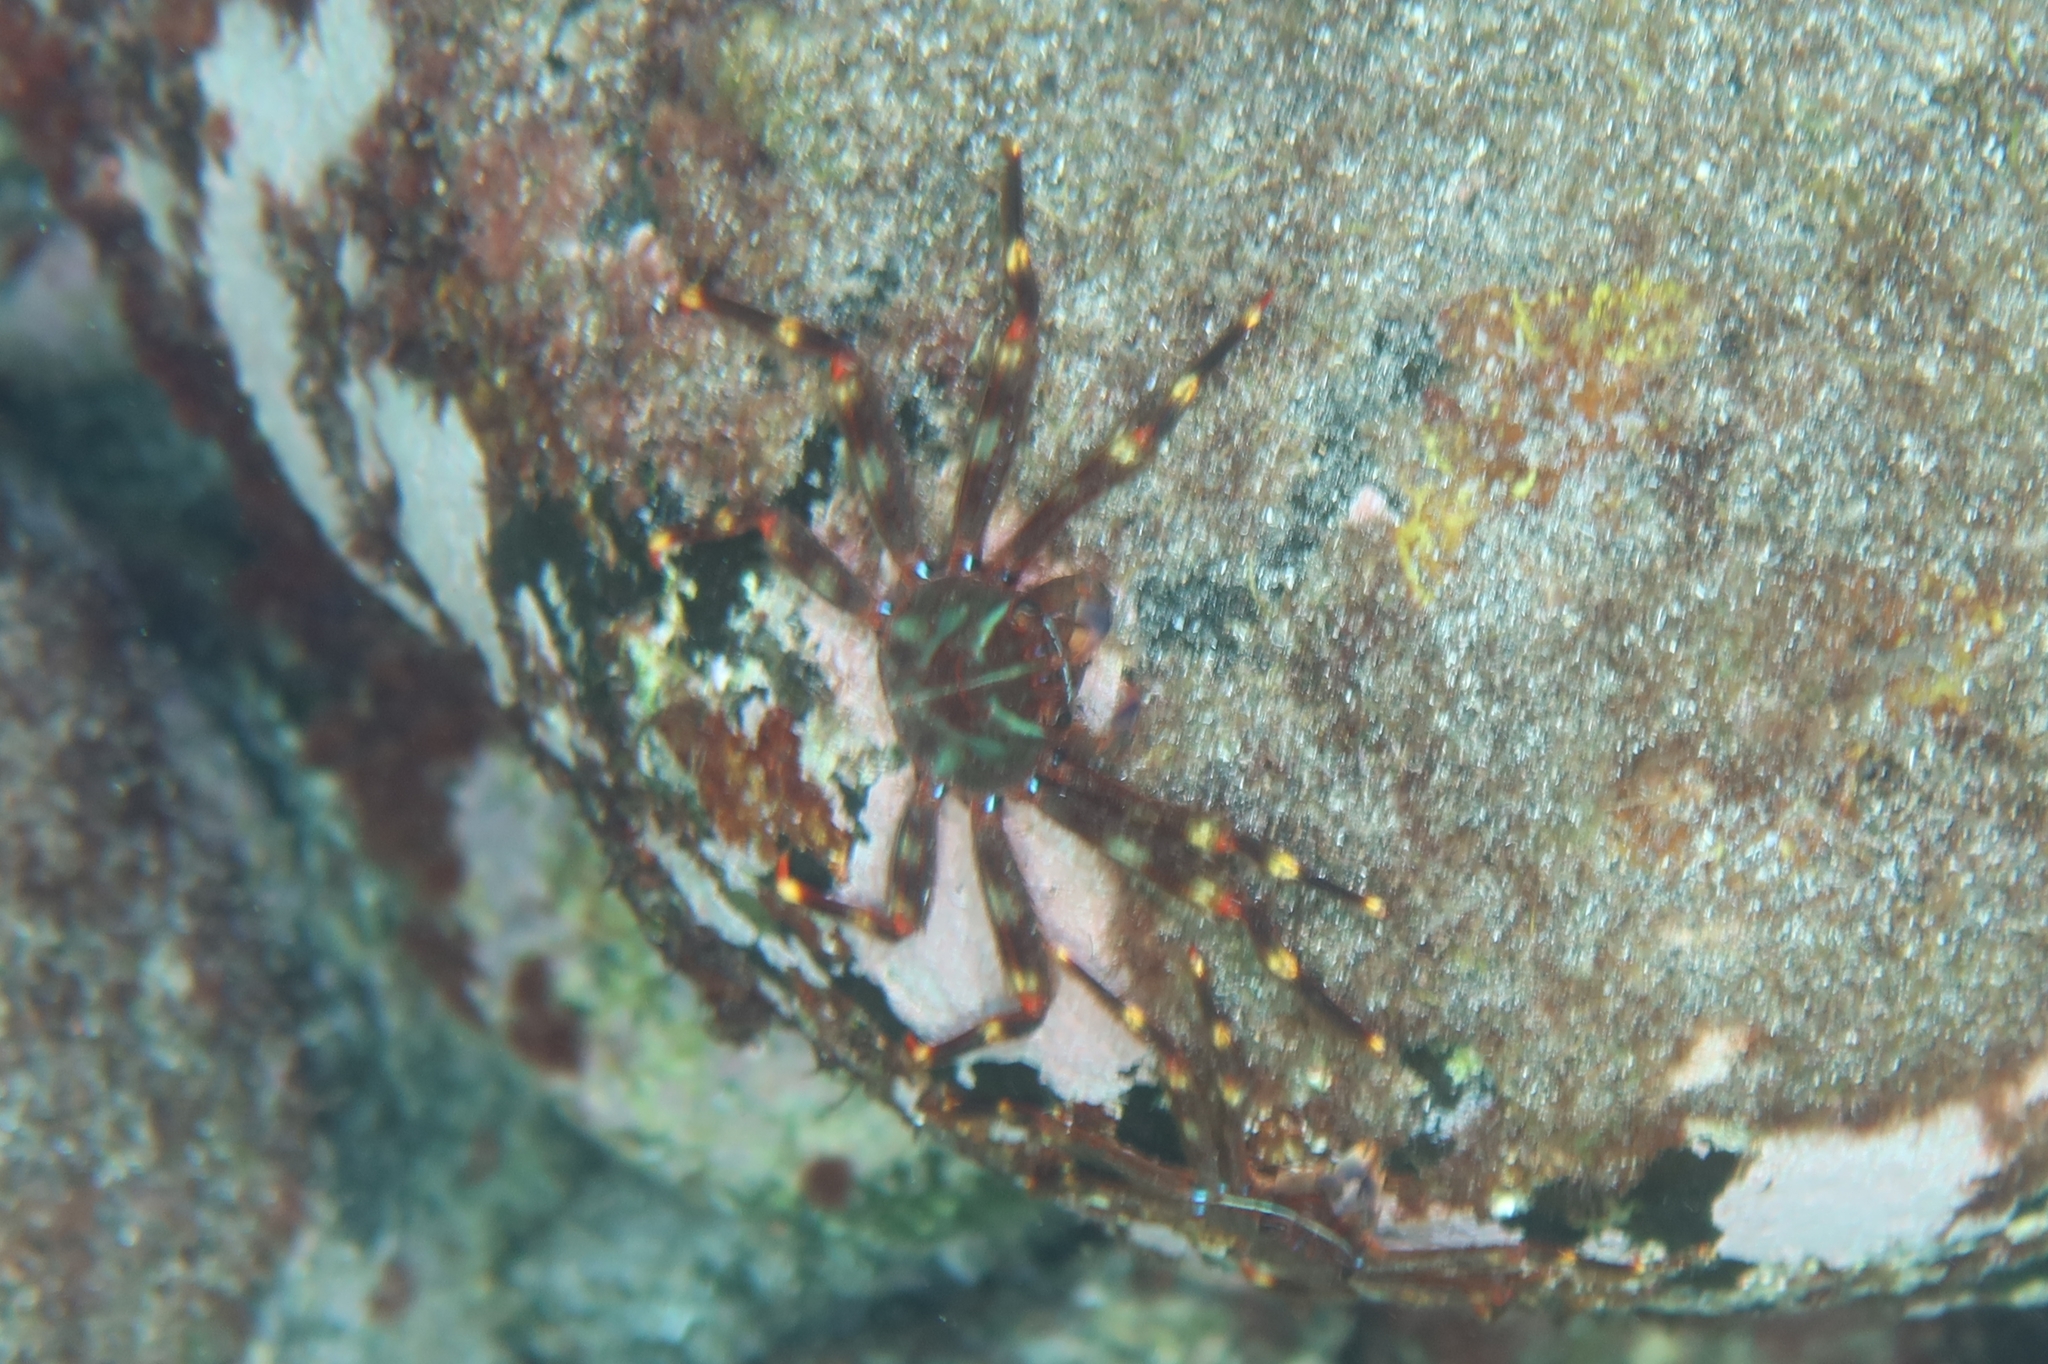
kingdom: Animalia
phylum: Arthropoda
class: Malacostraca
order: Decapoda
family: Percnidae
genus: Percnon
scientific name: Percnon gibbesi
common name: Nimble spray crab
